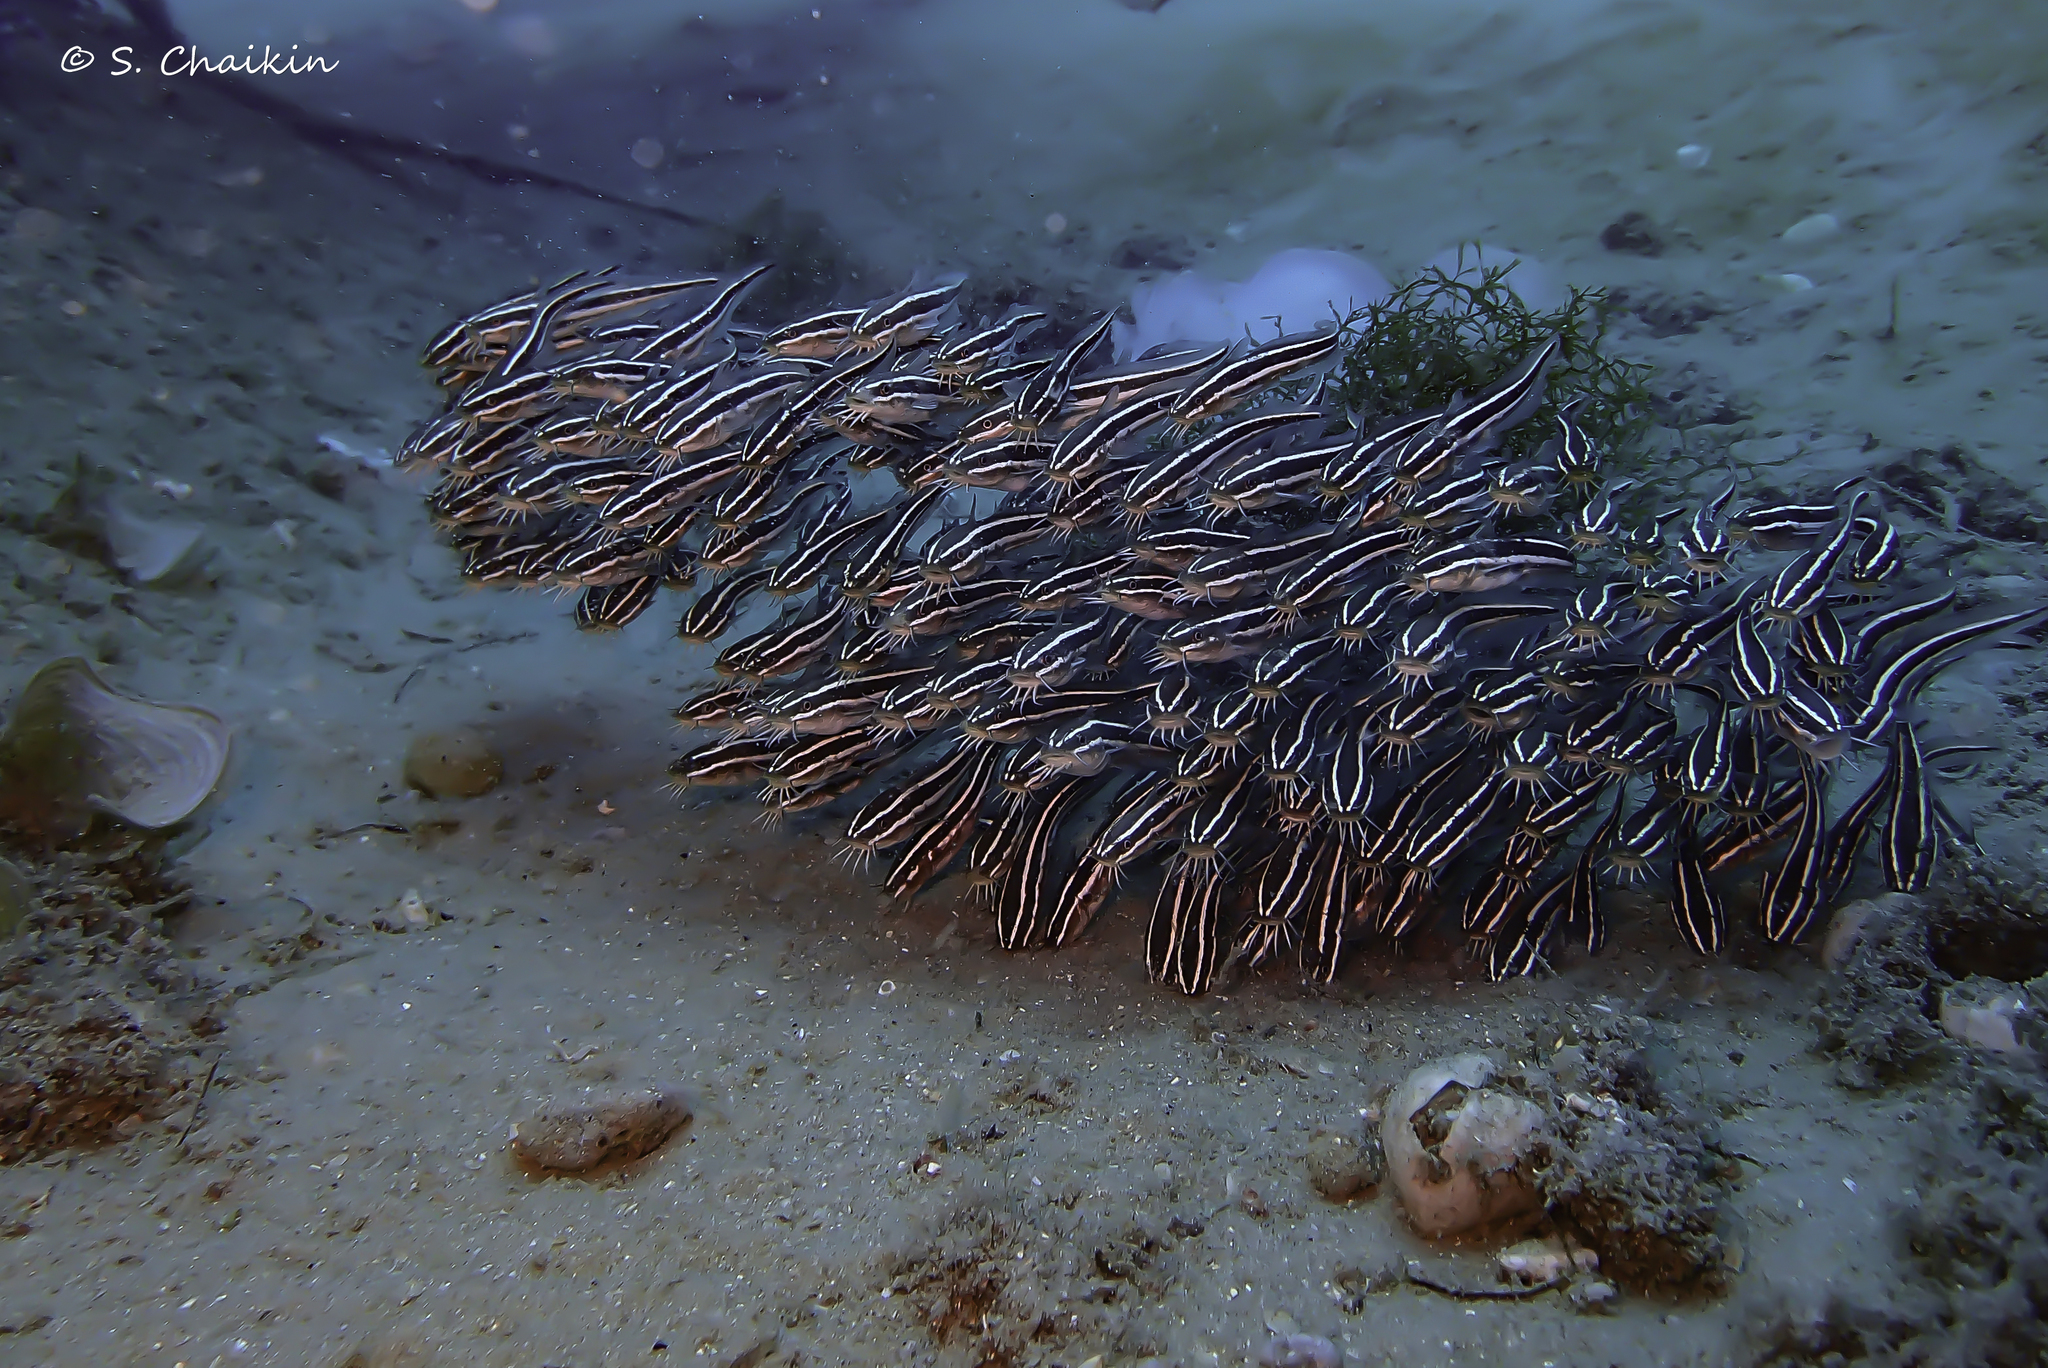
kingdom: Animalia
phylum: Chordata
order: Siluriformes
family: Plotosidae
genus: Plotosus
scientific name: Plotosus lineatus
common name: Striped eel catfish
